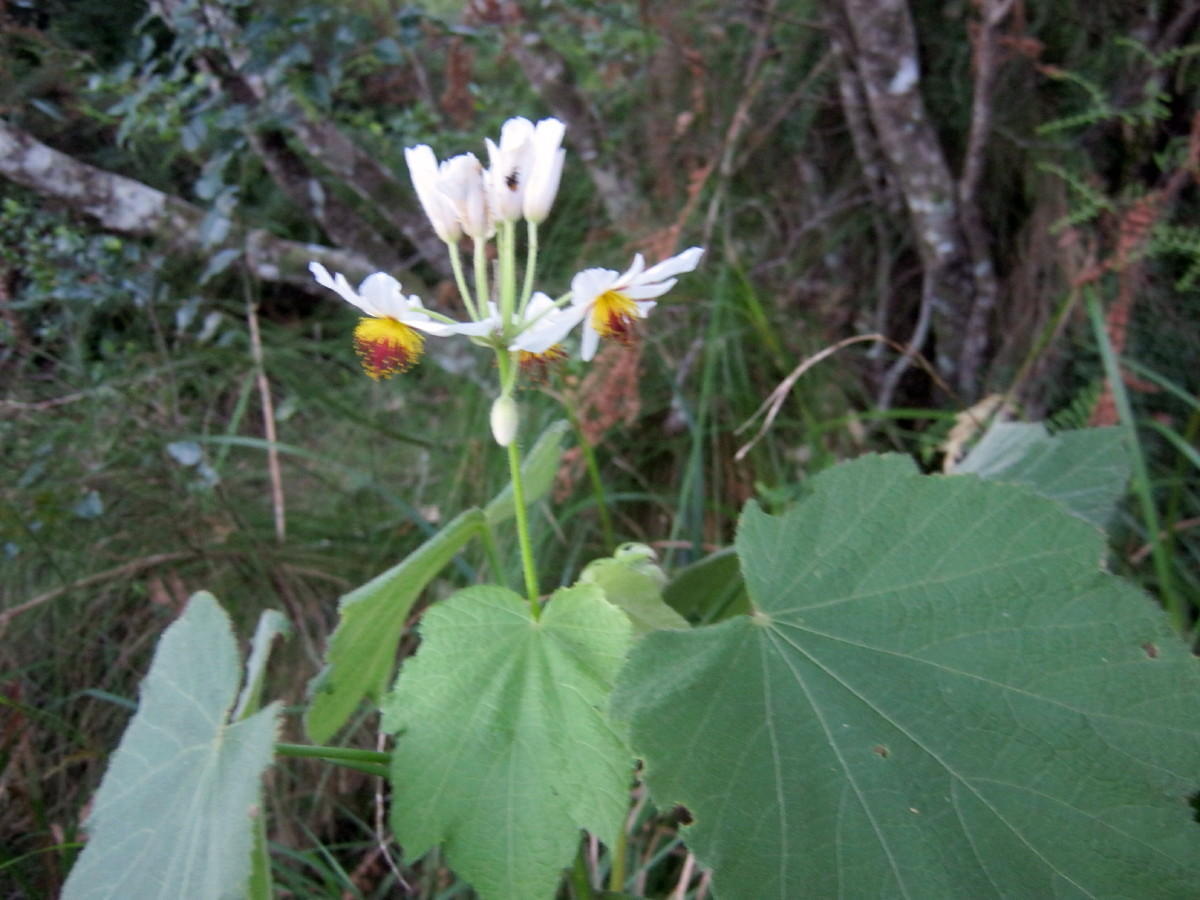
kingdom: Plantae
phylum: Tracheophyta
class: Magnoliopsida
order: Malvales
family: Malvaceae
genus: Sparrmannia
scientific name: Sparrmannia africana
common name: African-hemp
